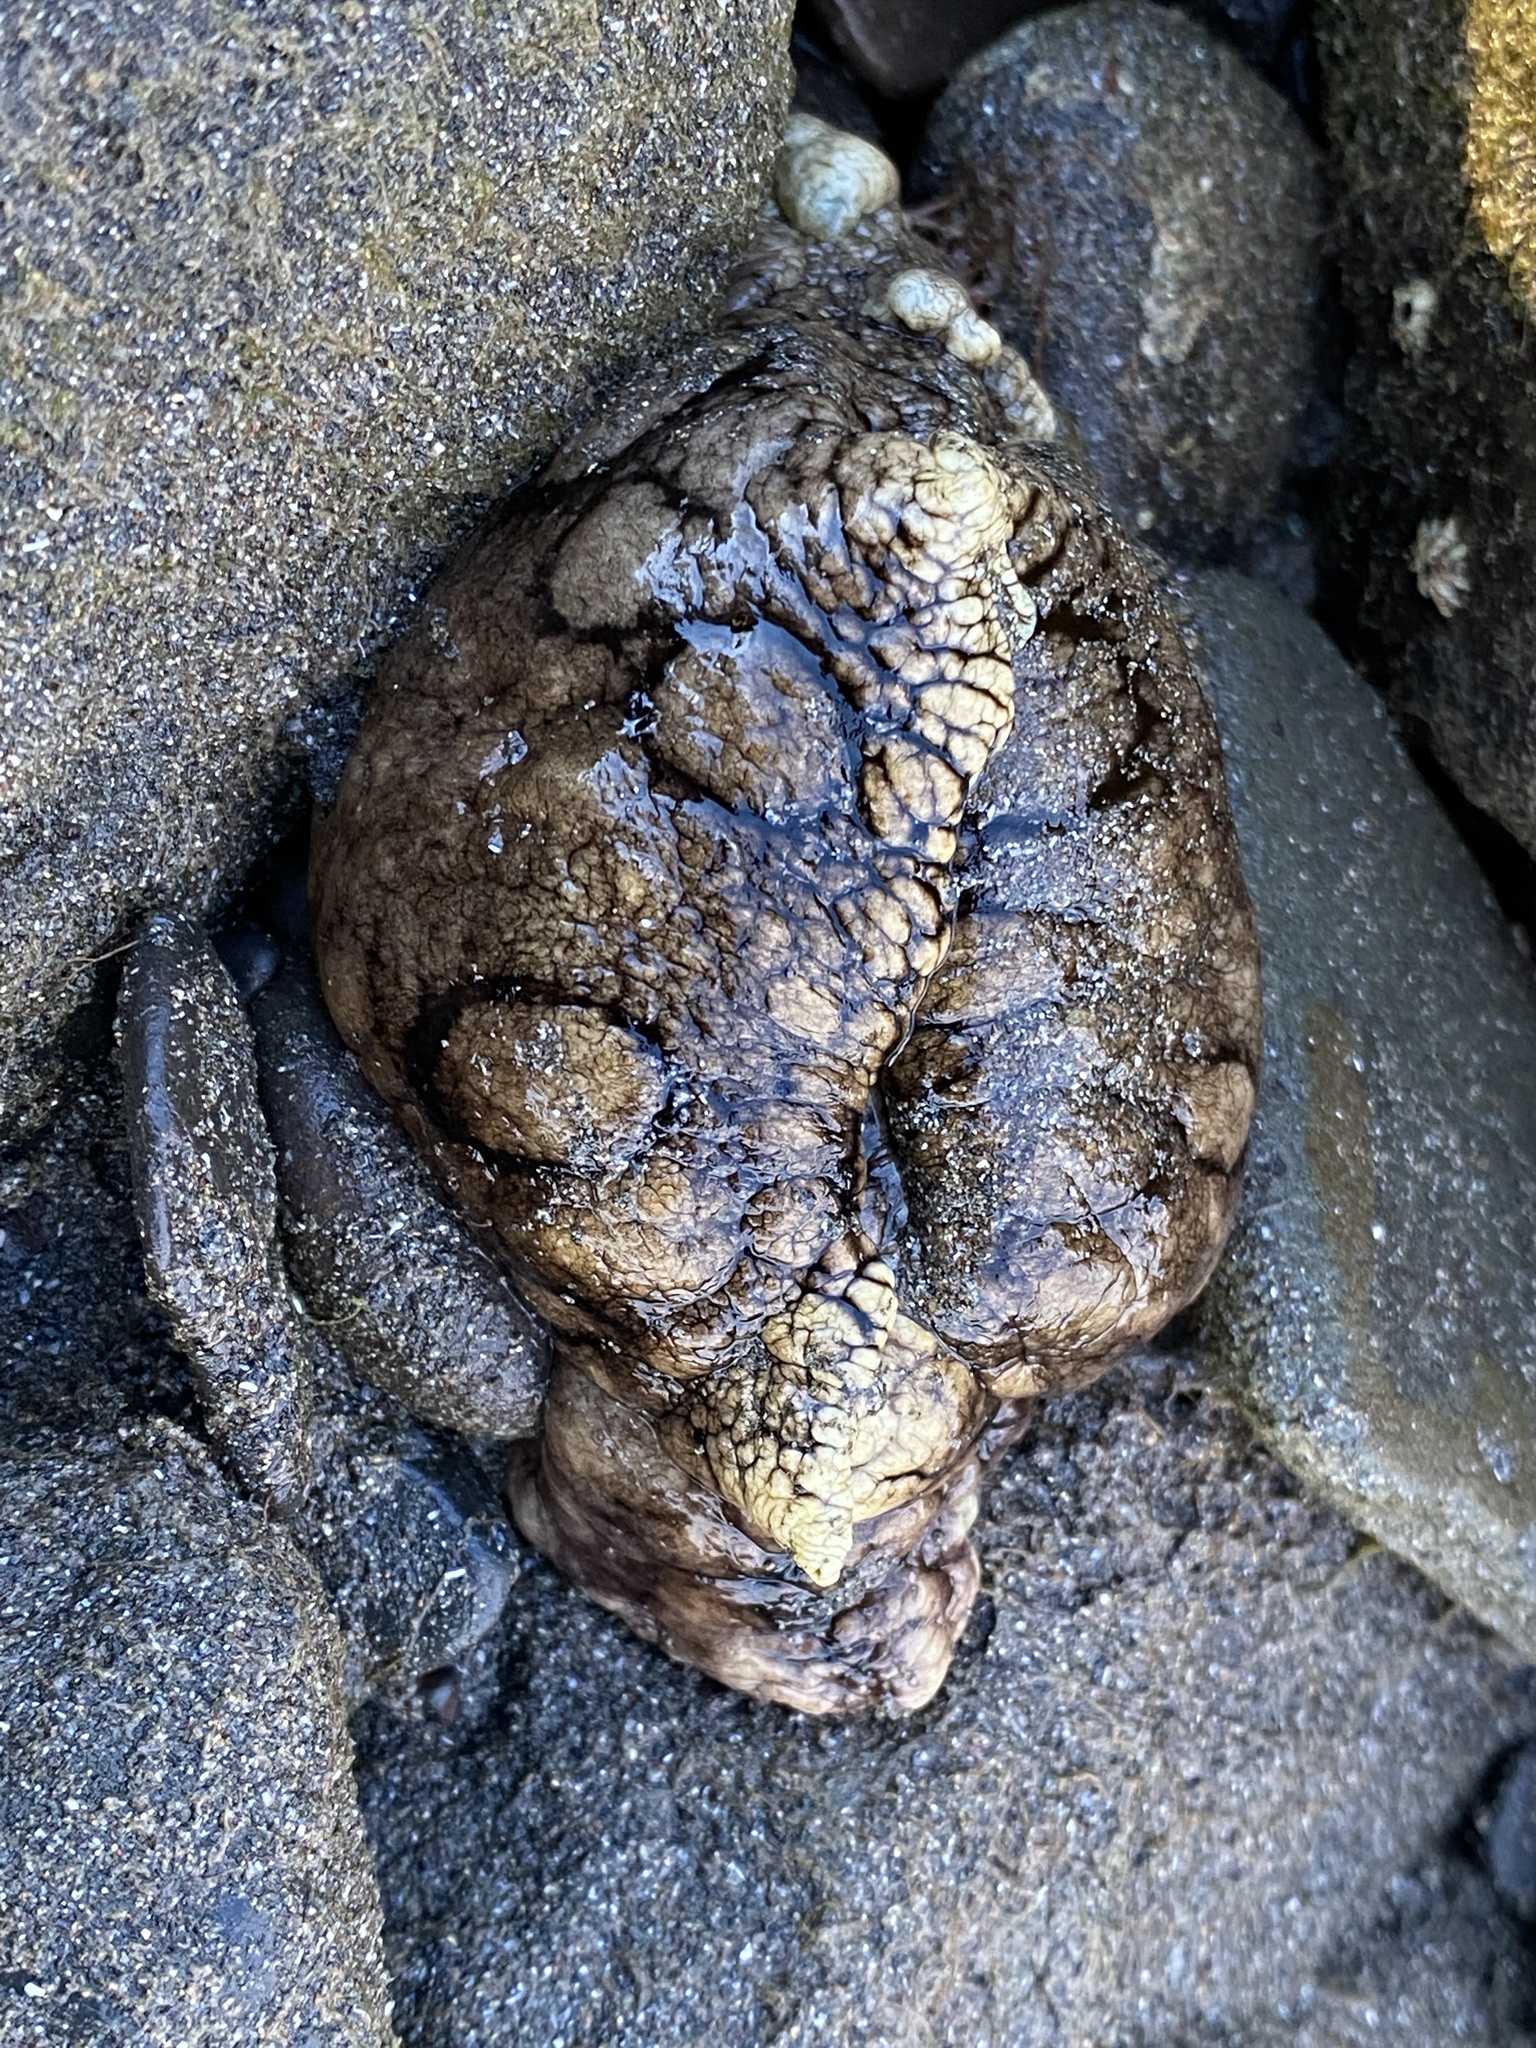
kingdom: Animalia
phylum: Mollusca
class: Gastropoda
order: Aplysiida
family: Aplysiidae
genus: Aplysia
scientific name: Aplysia dactylomela
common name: Large-spotted sea hare
